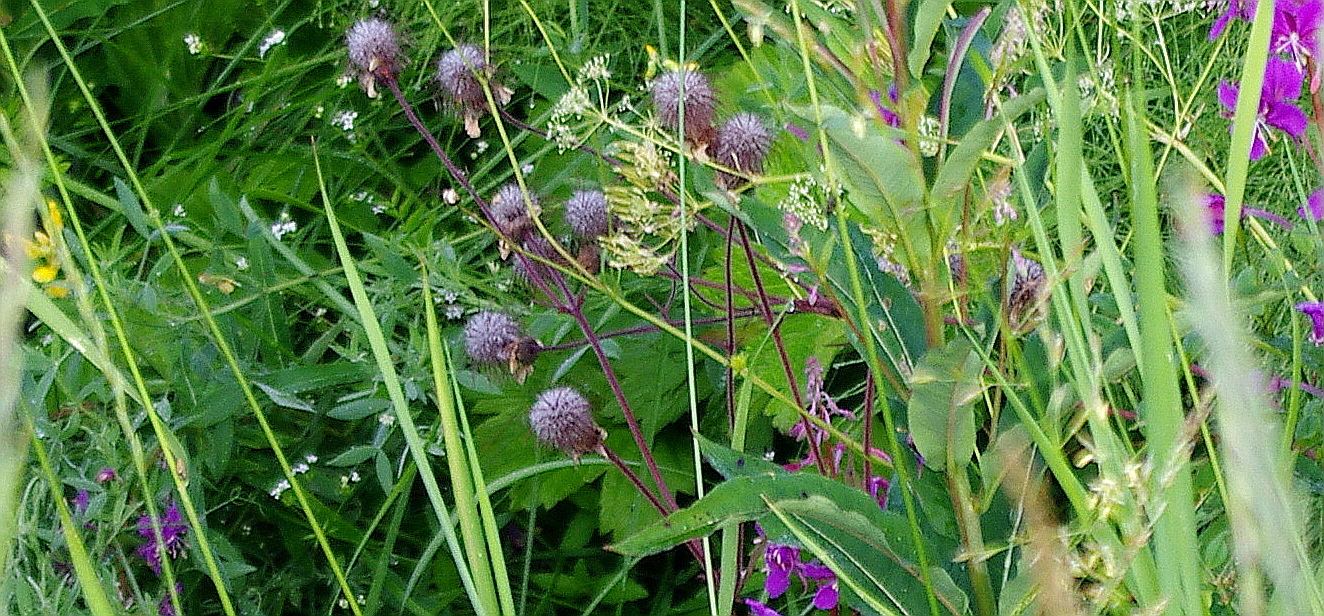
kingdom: Plantae
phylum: Tracheophyta
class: Magnoliopsida
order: Rosales
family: Rosaceae
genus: Geum
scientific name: Geum rivale
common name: Water avens
